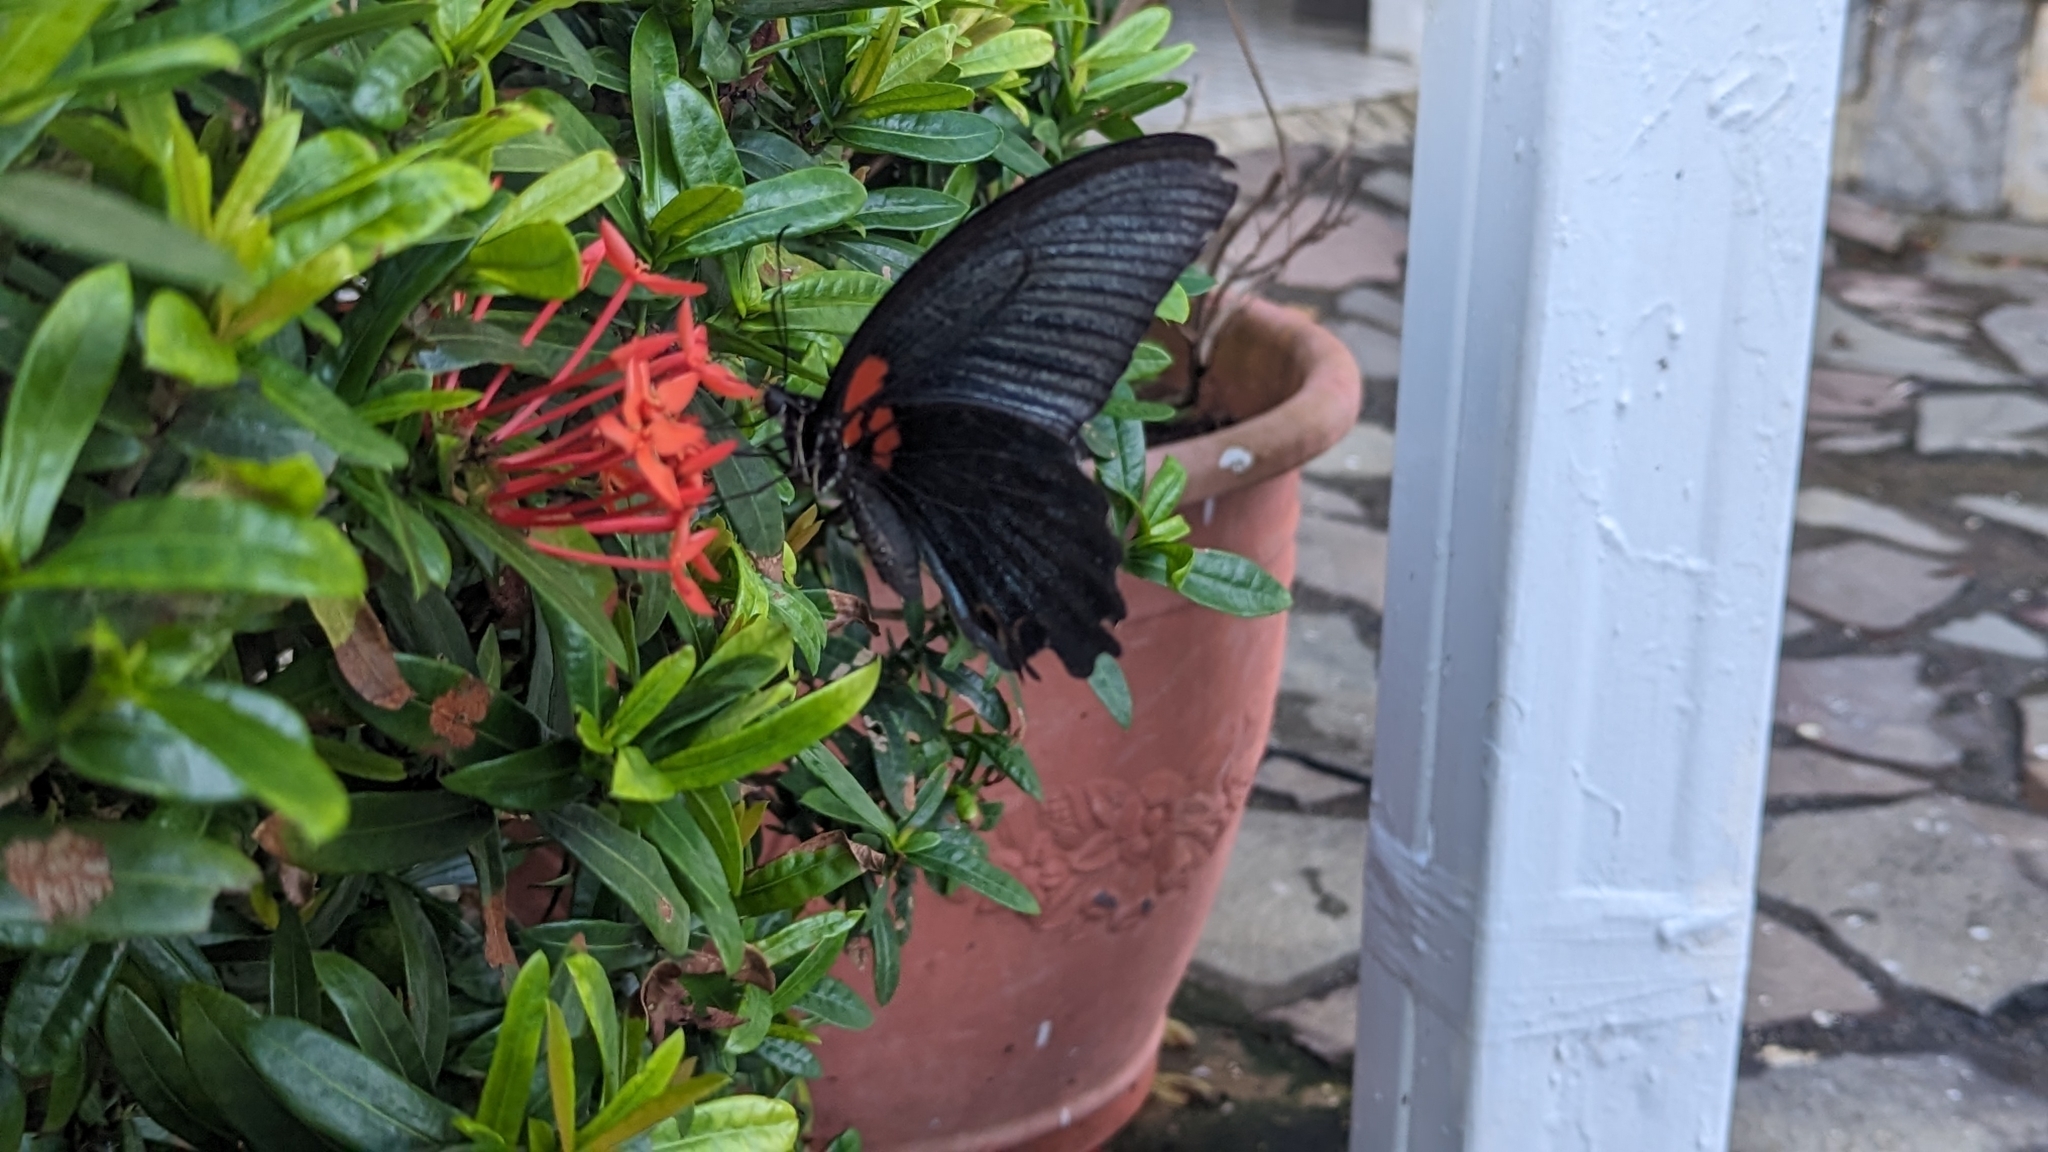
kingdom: Animalia
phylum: Arthropoda
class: Insecta
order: Lepidoptera
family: Papilionidae
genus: Papilio
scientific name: Papilio memnon
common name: Great mormon
